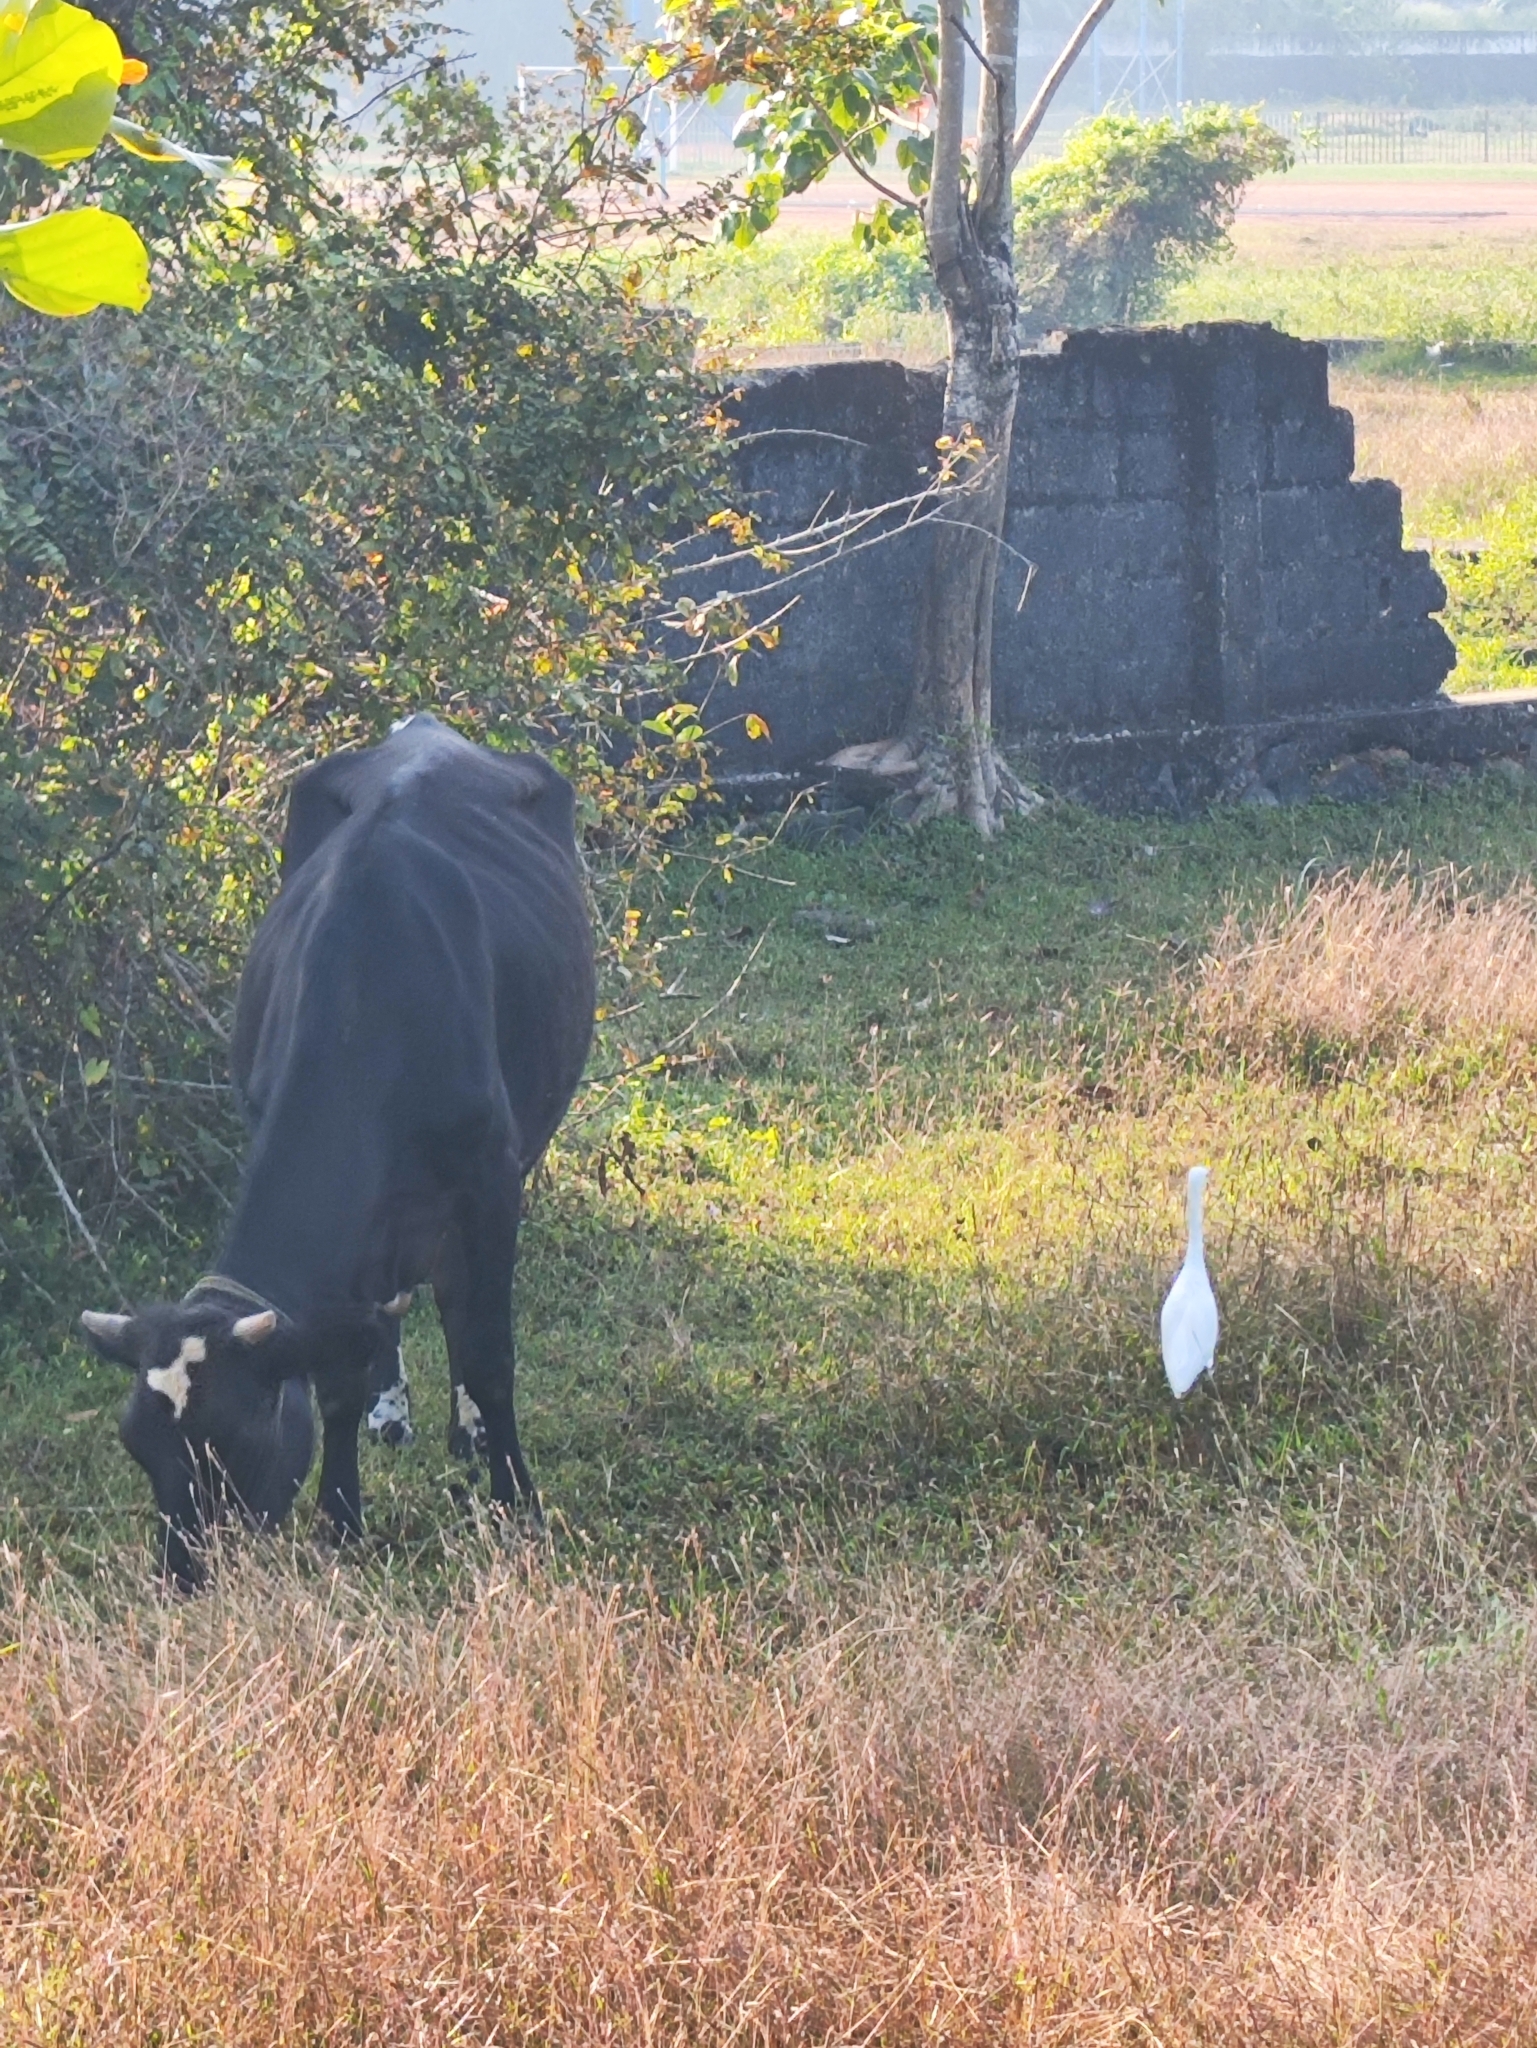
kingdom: Animalia
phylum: Chordata
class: Aves
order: Pelecaniformes
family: Ardeidae
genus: Bubulcus
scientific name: Bubulcus coromandus
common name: Eastern cattle egret
